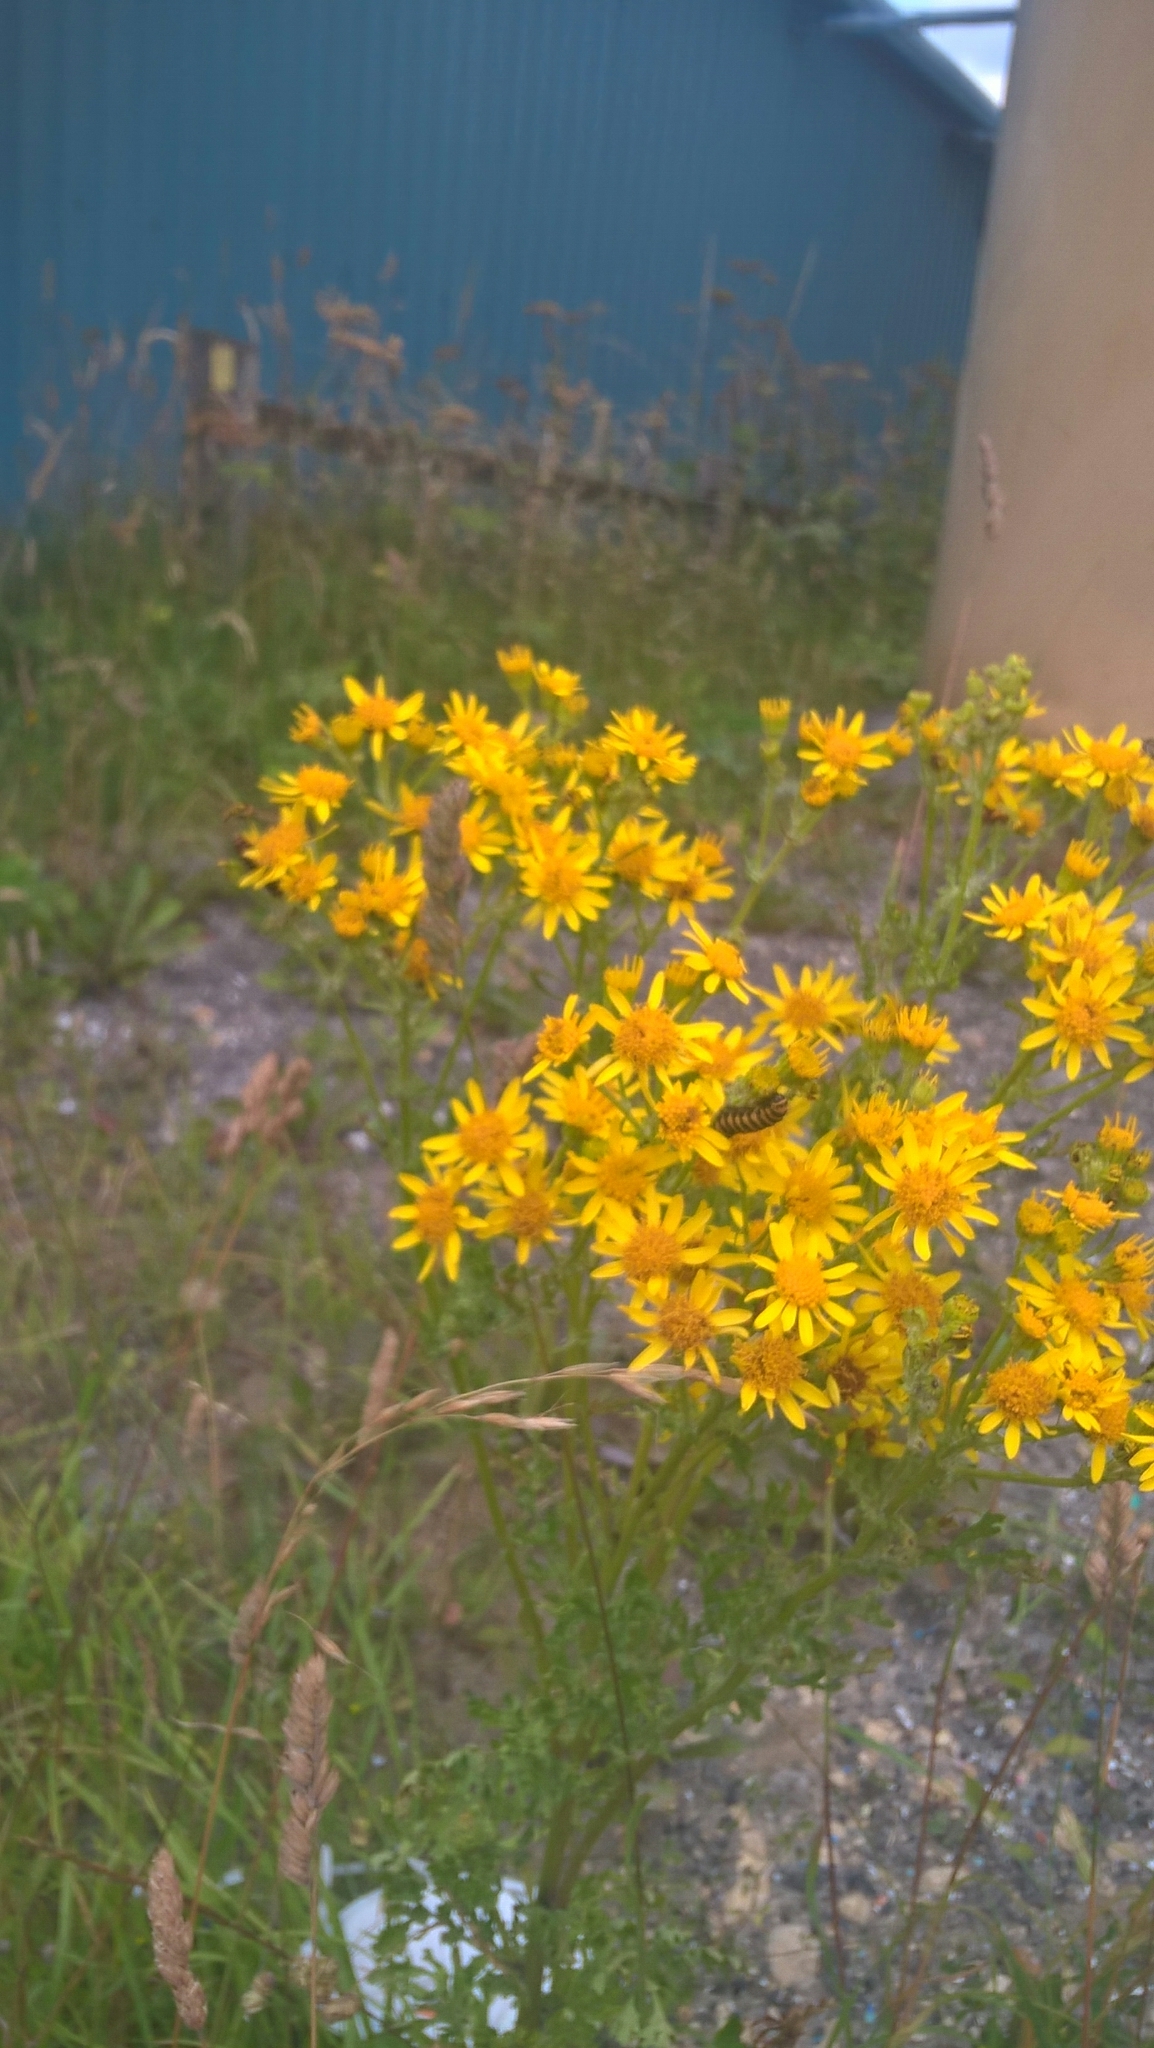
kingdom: Animalia
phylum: Arthropoda
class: Insecta
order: Lepidoptera
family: Erebidae
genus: Tyria
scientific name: Tyria jacobaeae
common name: Cinnabar
